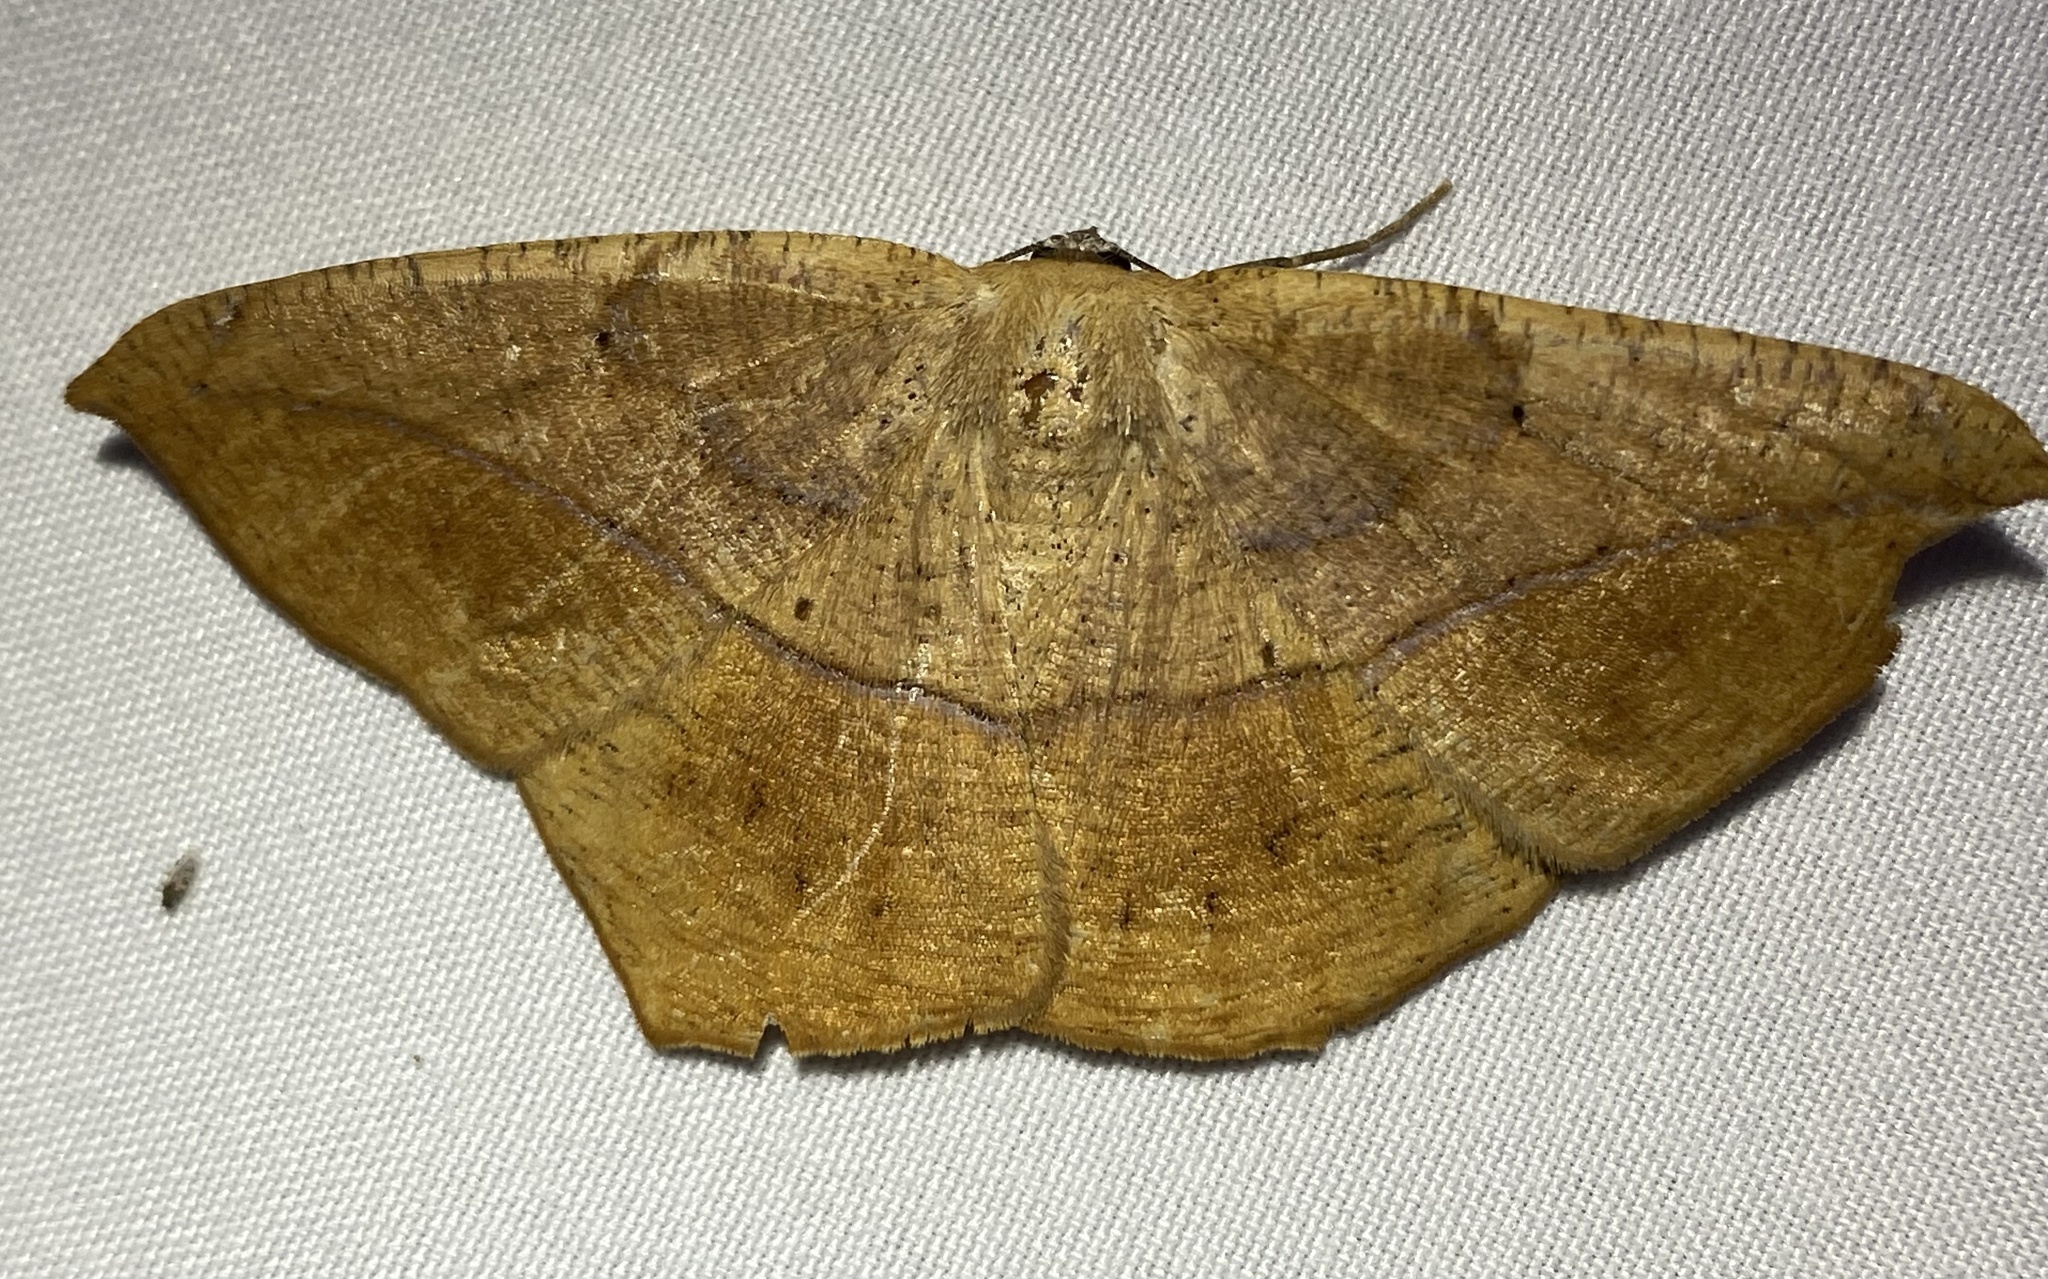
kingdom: Animalia
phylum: Arthropoda
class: Insecta
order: Lepidoptera
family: Geometridae
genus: Prochoerodes
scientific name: Prochoerodes lineola
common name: Large maple spanworm
